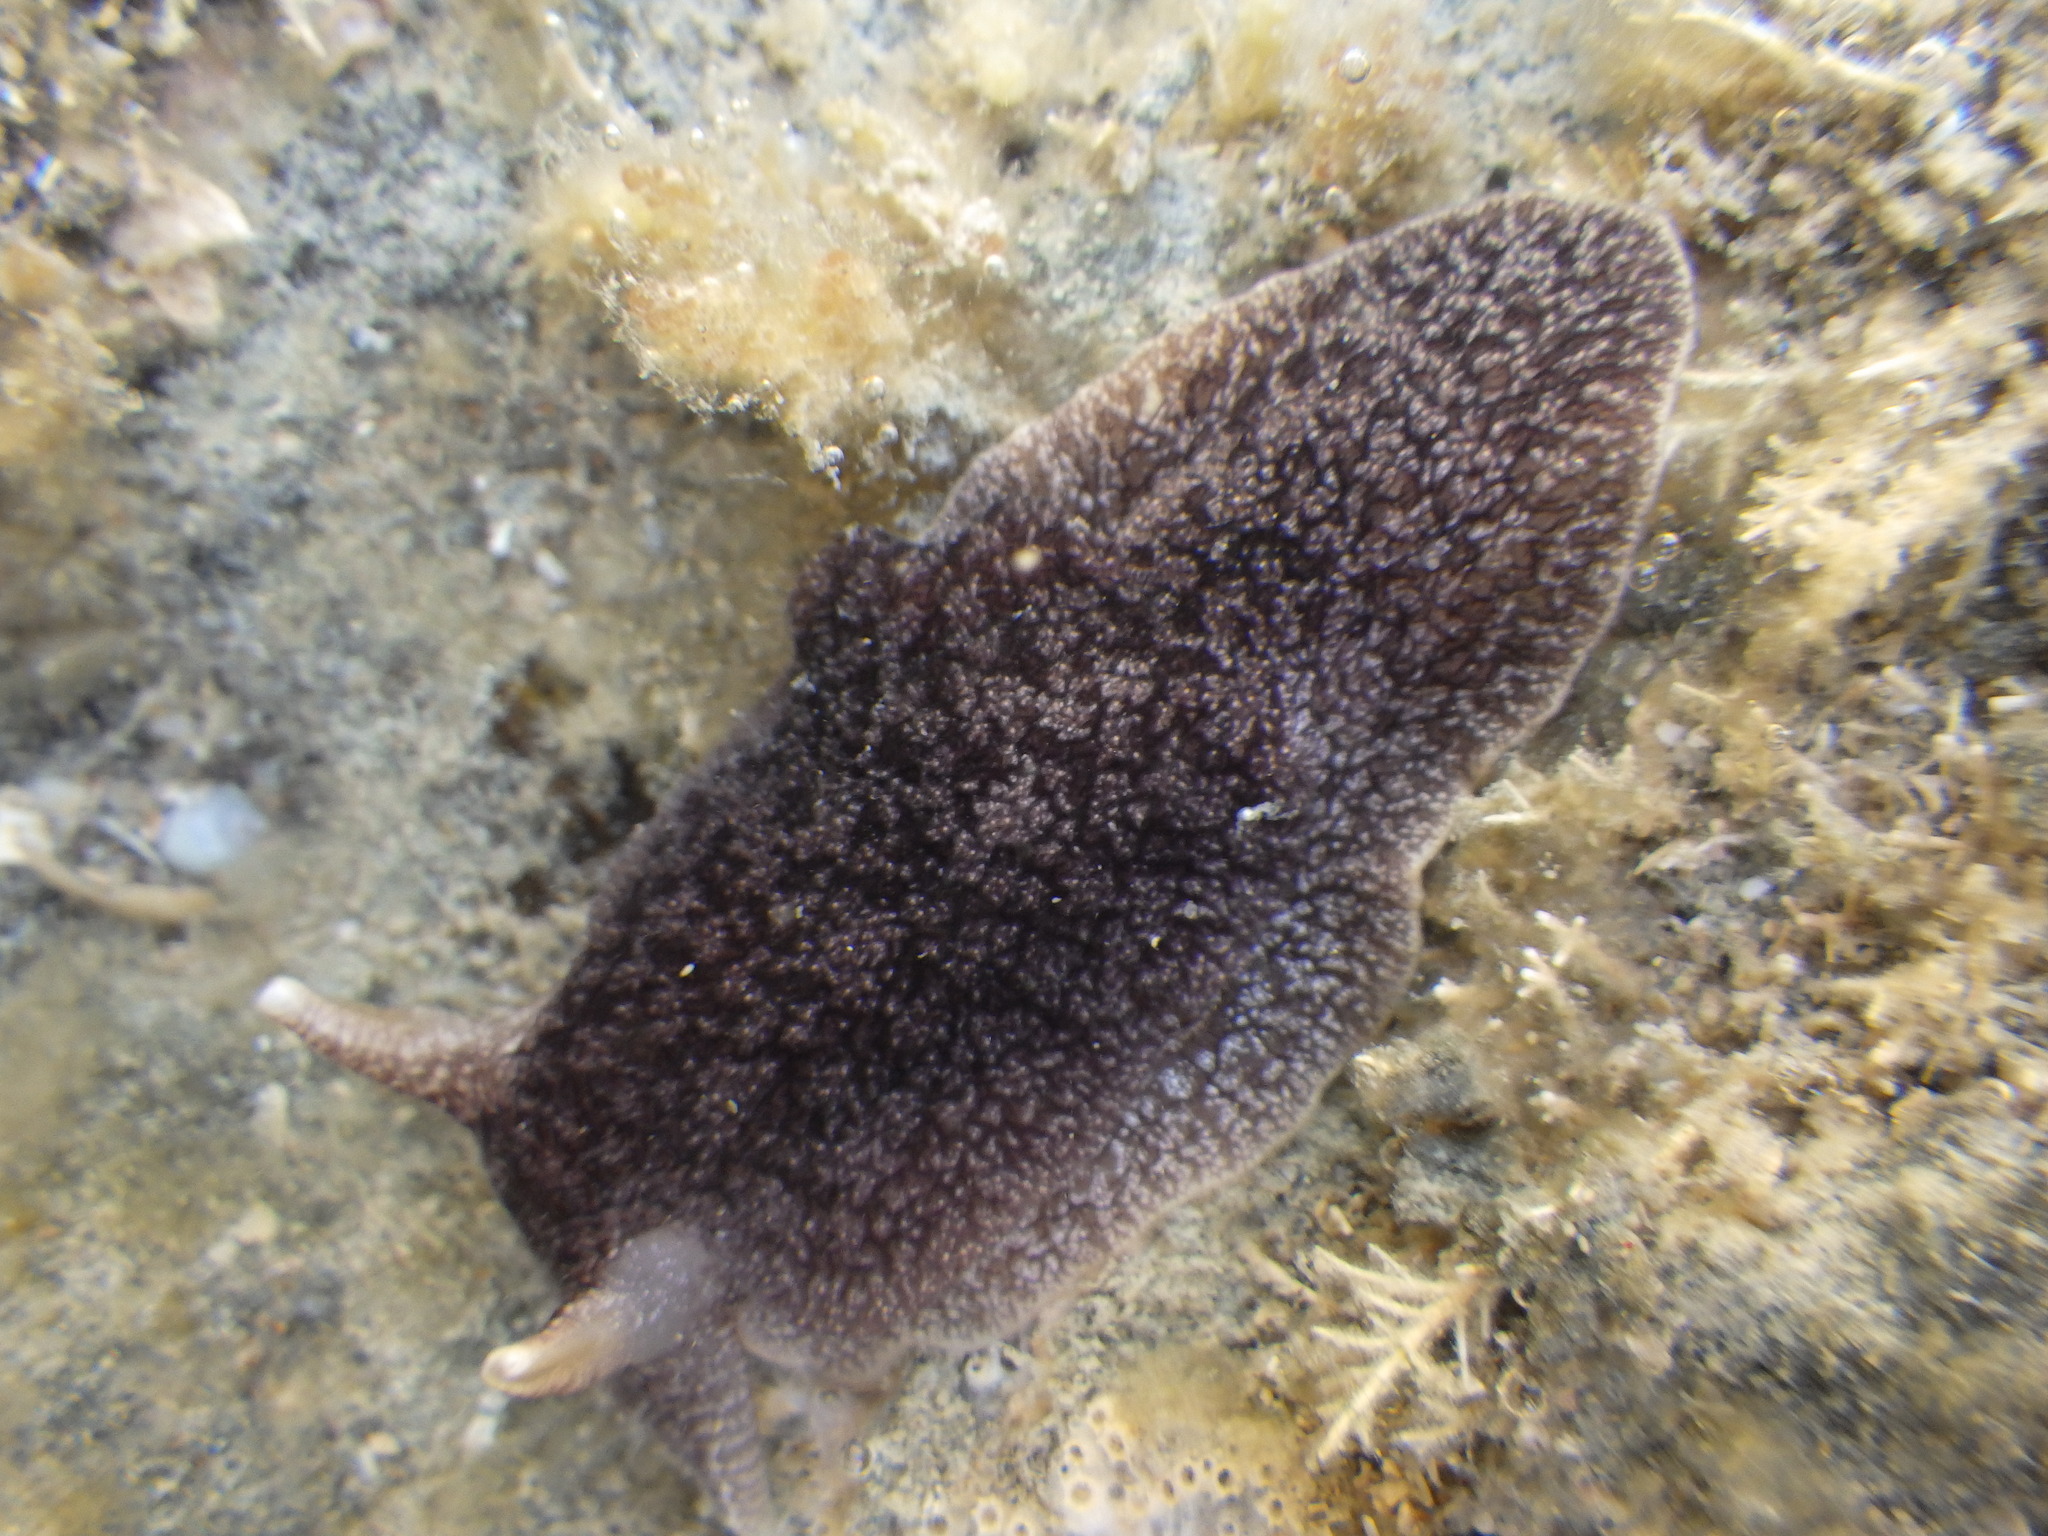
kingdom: Animalia
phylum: Mollusca
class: Gastropoda
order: Pleurobranchida
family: Pleurobranchaeidae
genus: Pleurobranchaea
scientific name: Pleurobranchaea maculata
